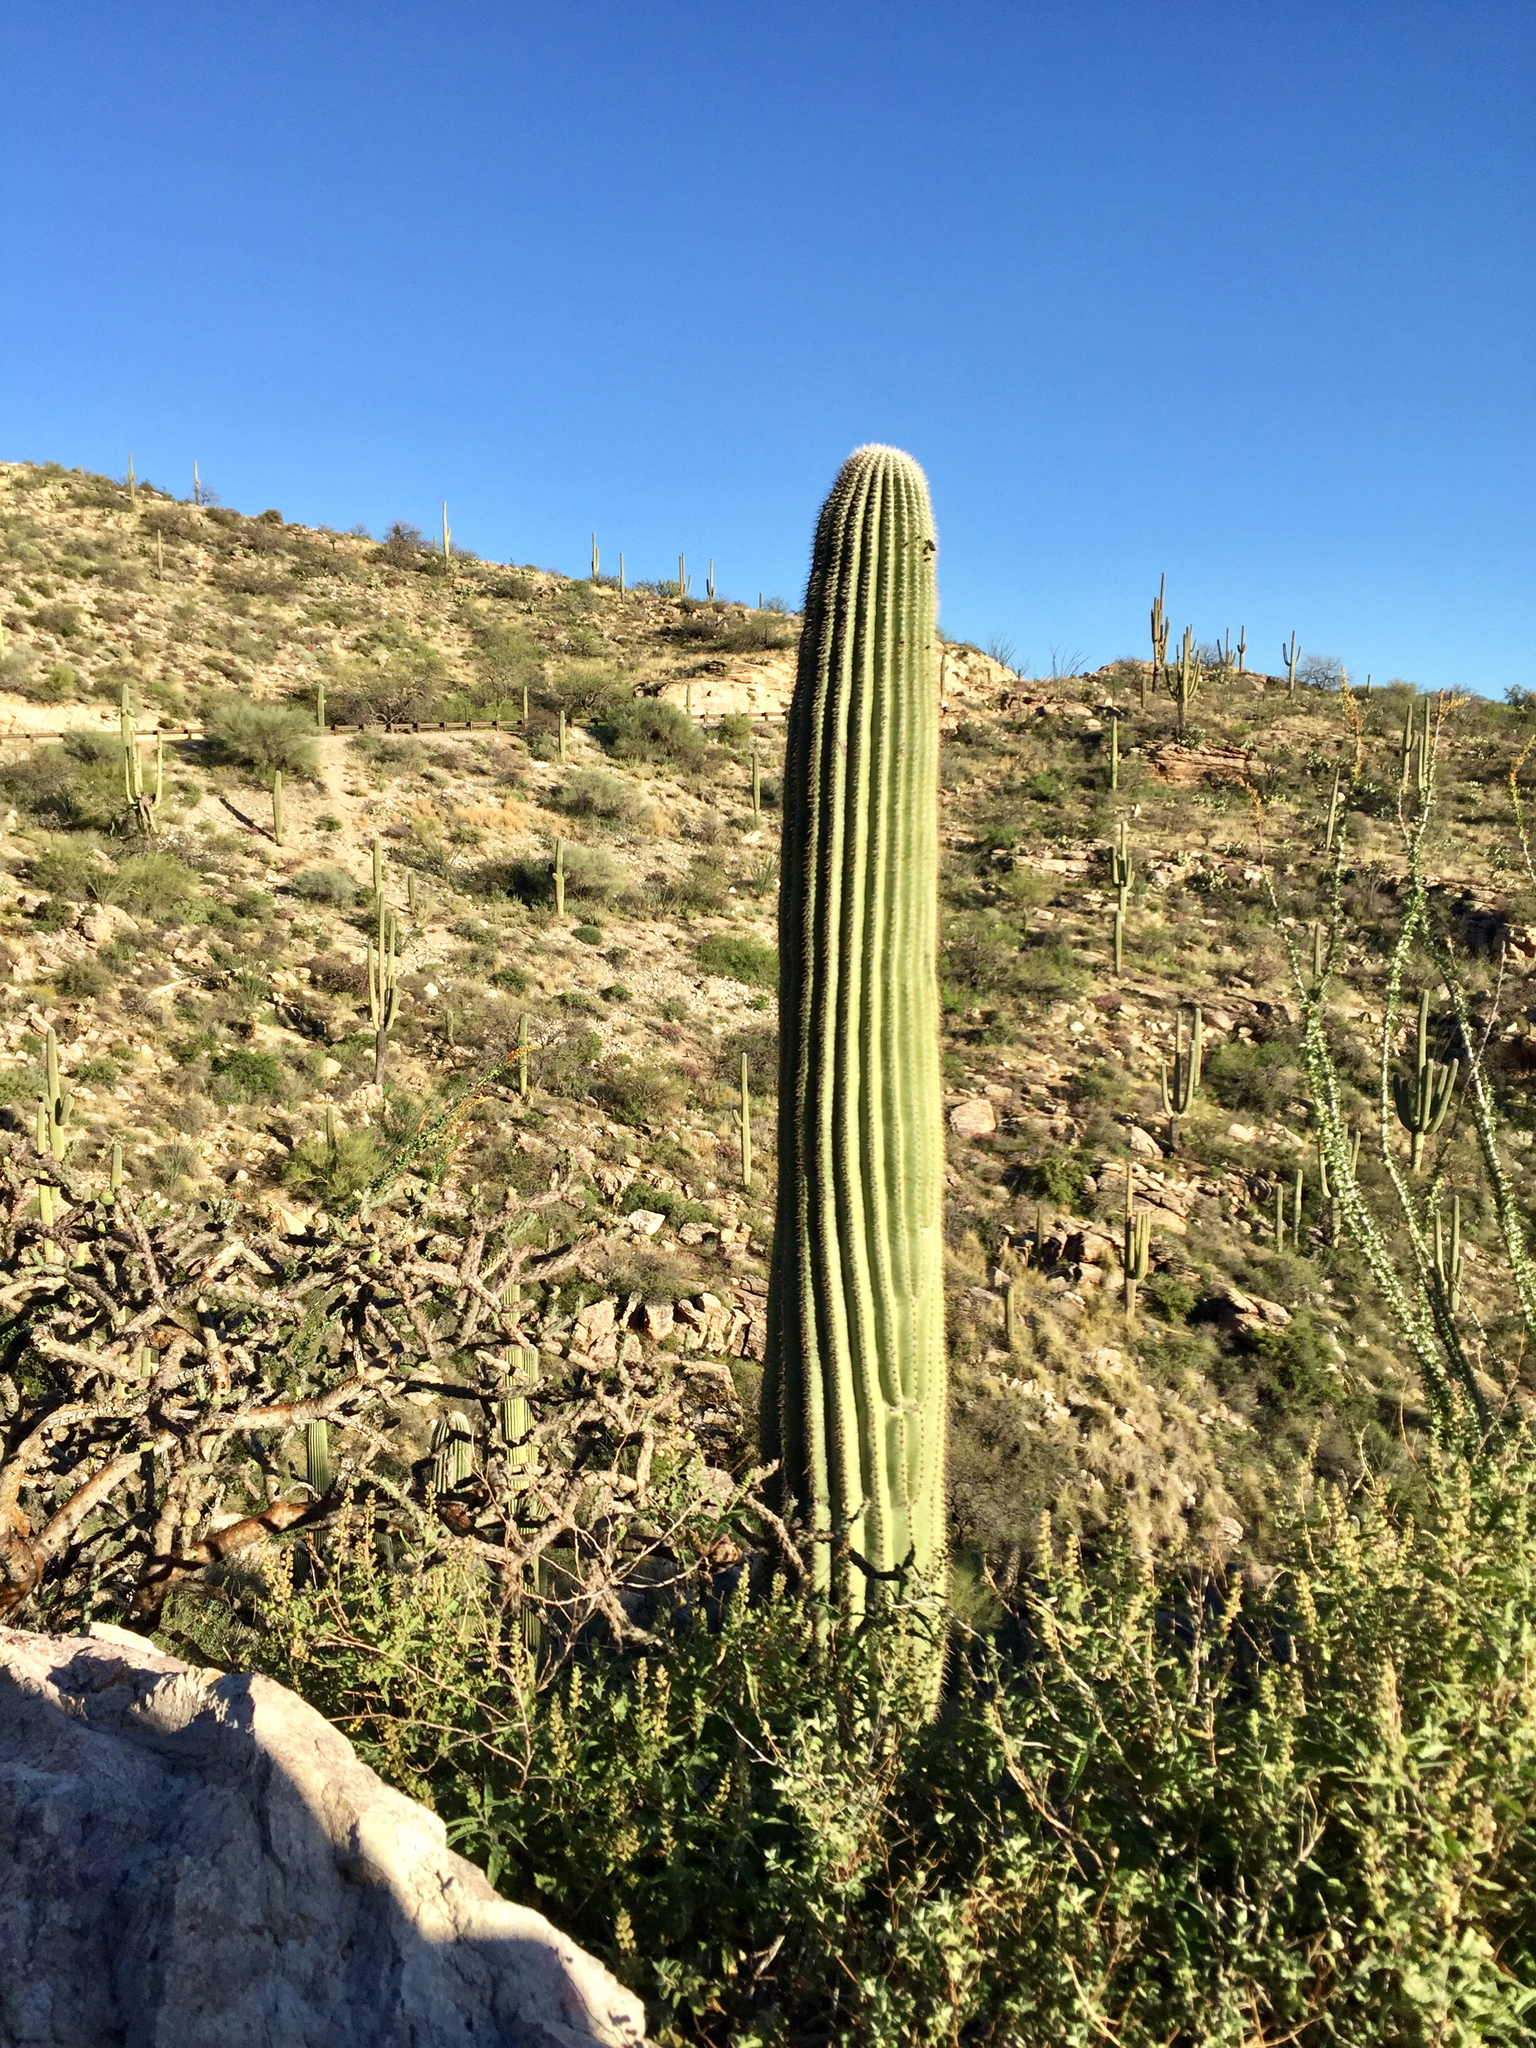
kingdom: Plantae
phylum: Tracheophyta
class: Magnoliopsida
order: Caryophyllales
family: Cactaceae
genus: Carnegiea
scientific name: Carnegiea gigantea
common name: Saguaro
